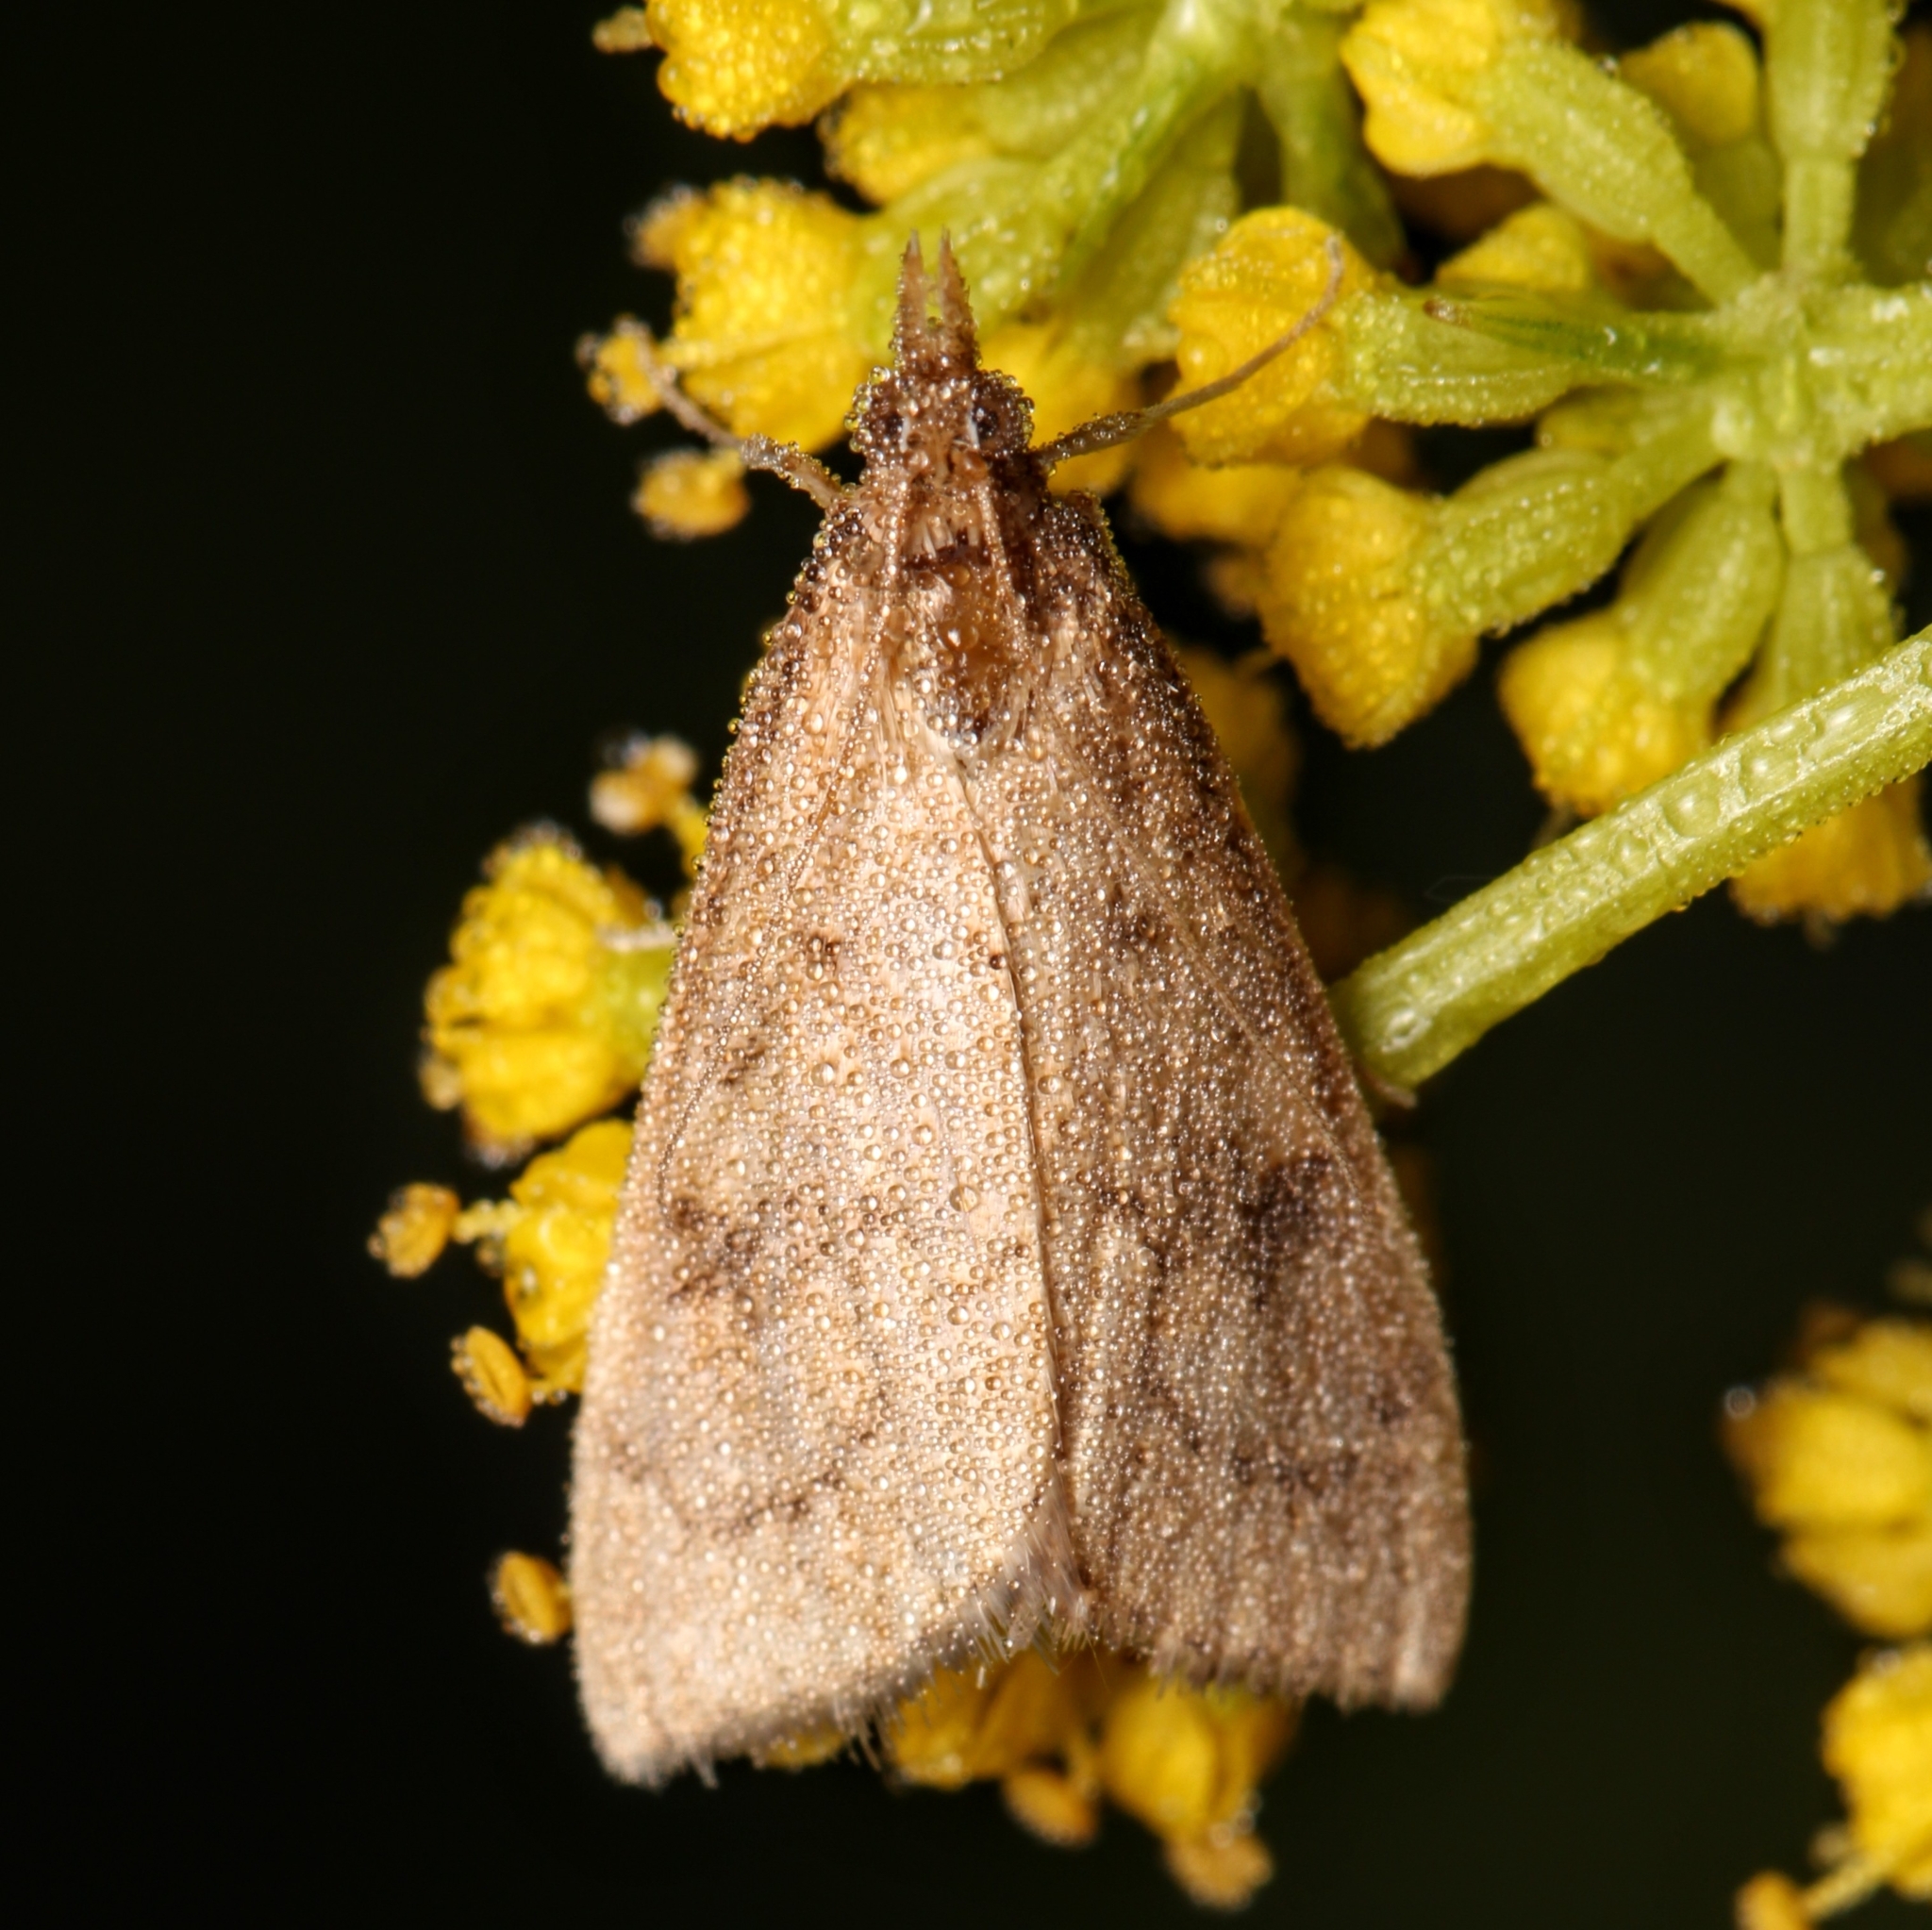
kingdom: Animalia
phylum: Arthropoda
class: Insecta
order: Lepidoptera
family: Crambidae
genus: Udea
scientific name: Udea rubigalis
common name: Celery leaftier moth
